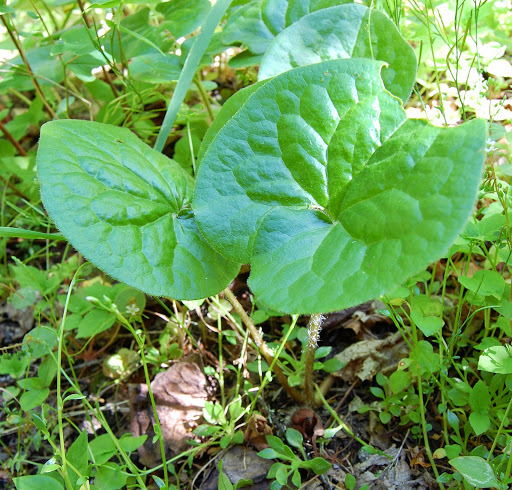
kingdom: Plantae
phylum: Tracheophyta
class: Magnoliopsida
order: Piperales
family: Aristolochiaceae
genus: Asarum
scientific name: Asarum caudatum
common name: Wild ginger
